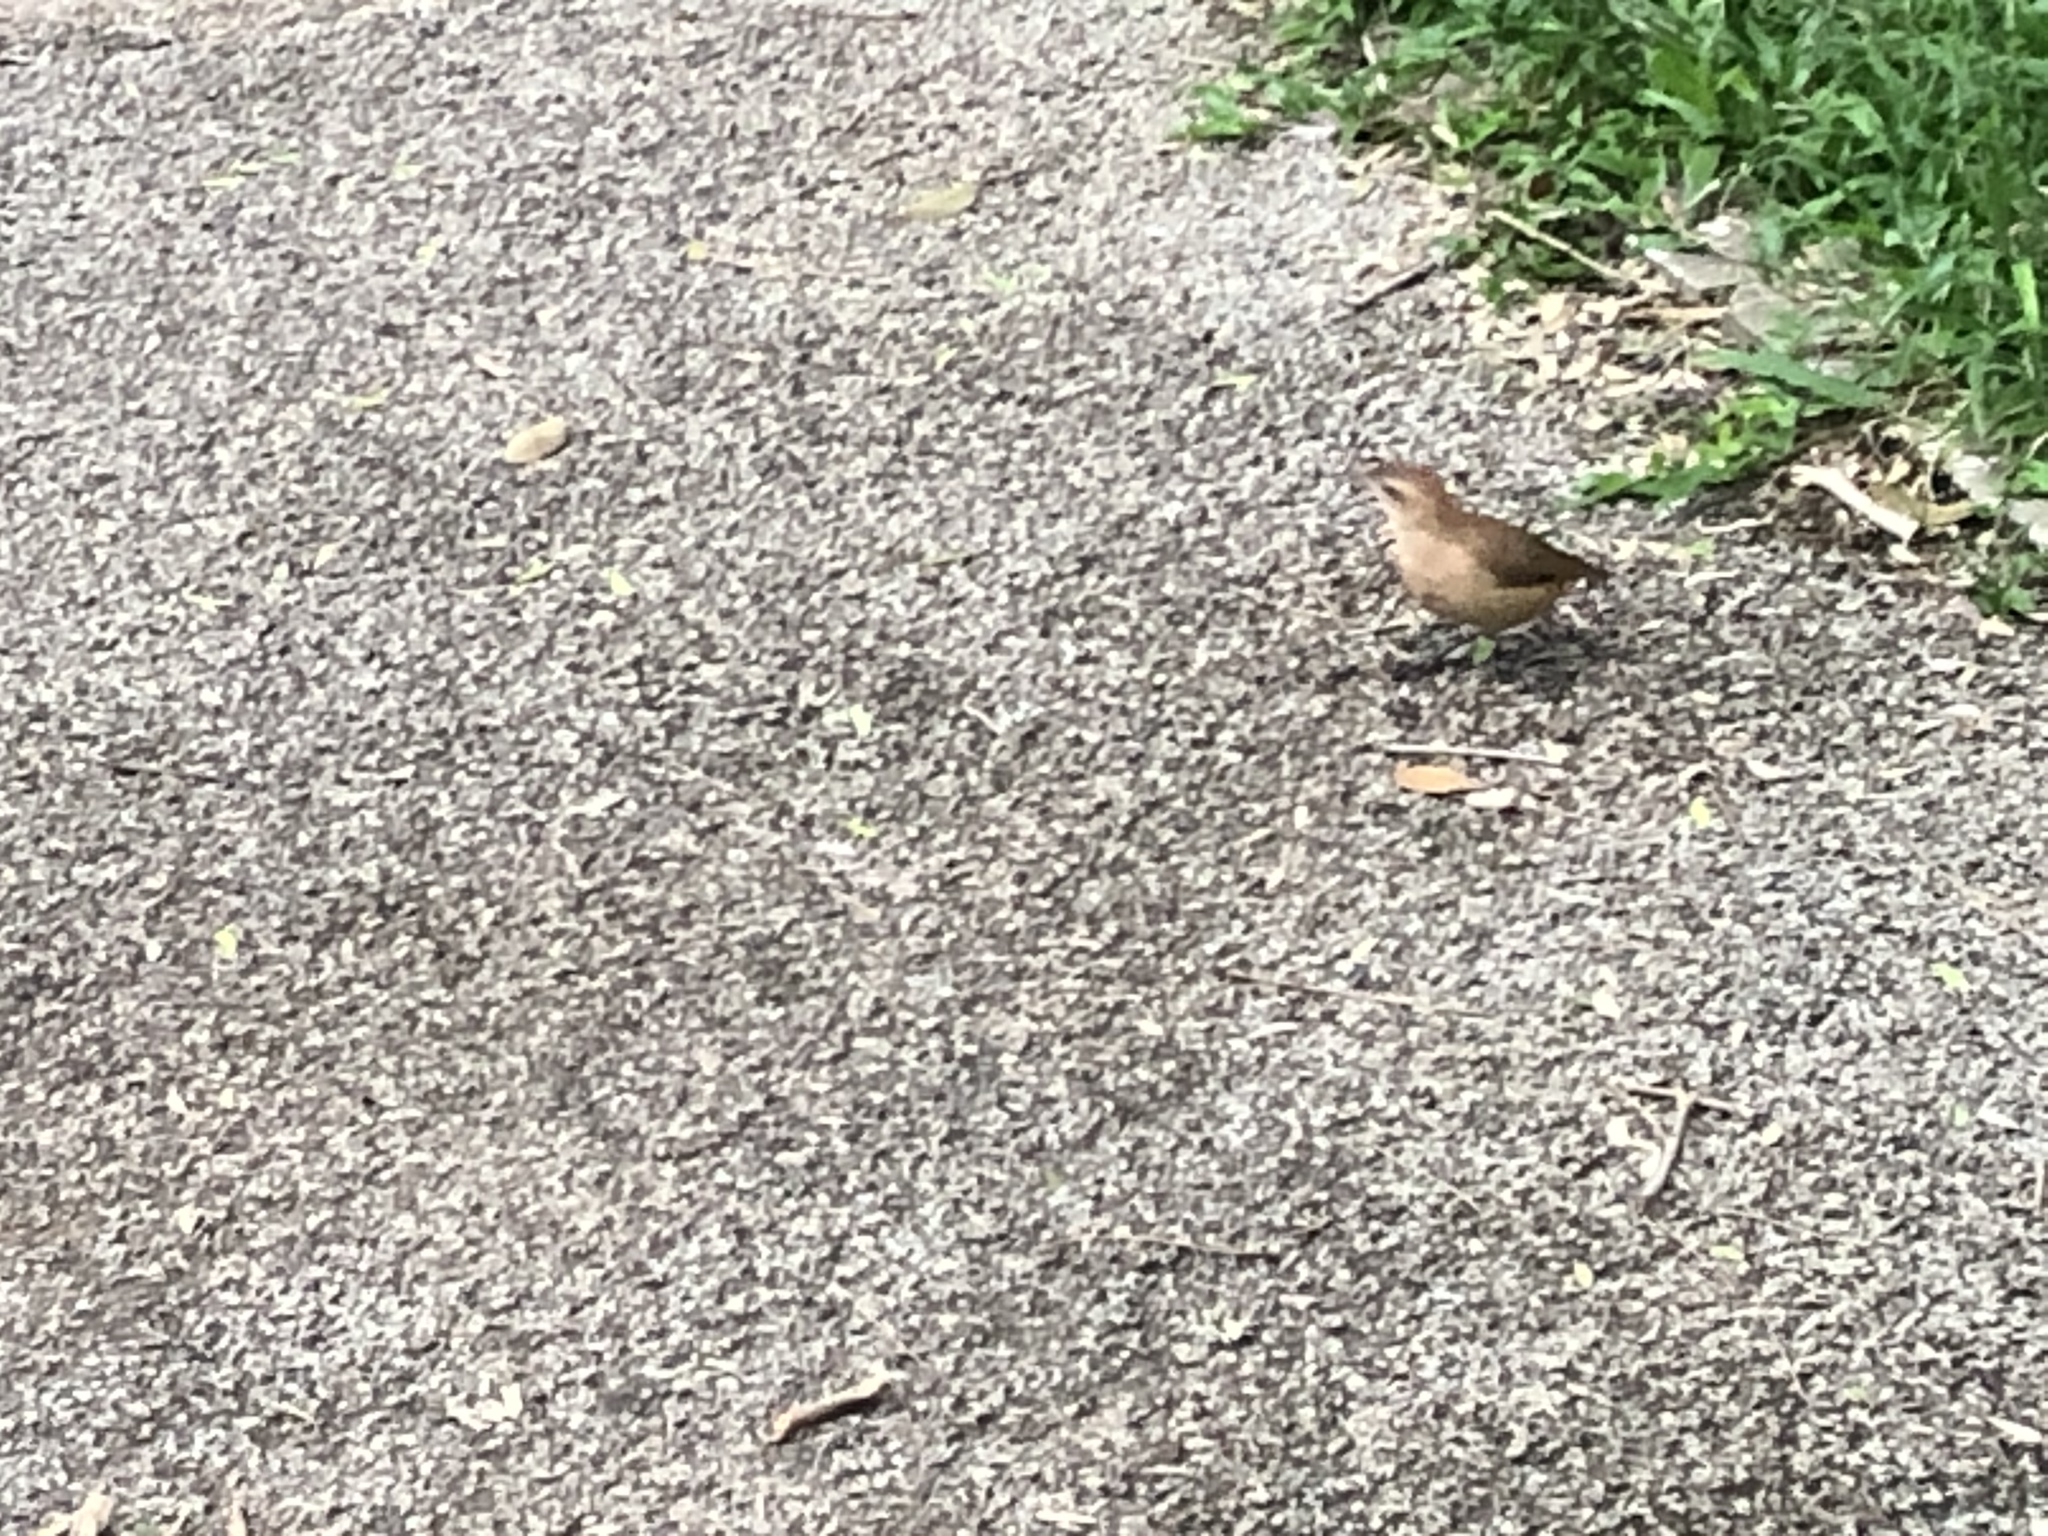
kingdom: Animalia
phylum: Chordata
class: Aves
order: Passeriformes
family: Furnariidae
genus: Furnarius
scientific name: Furnarius rufus
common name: Rufous hornero
